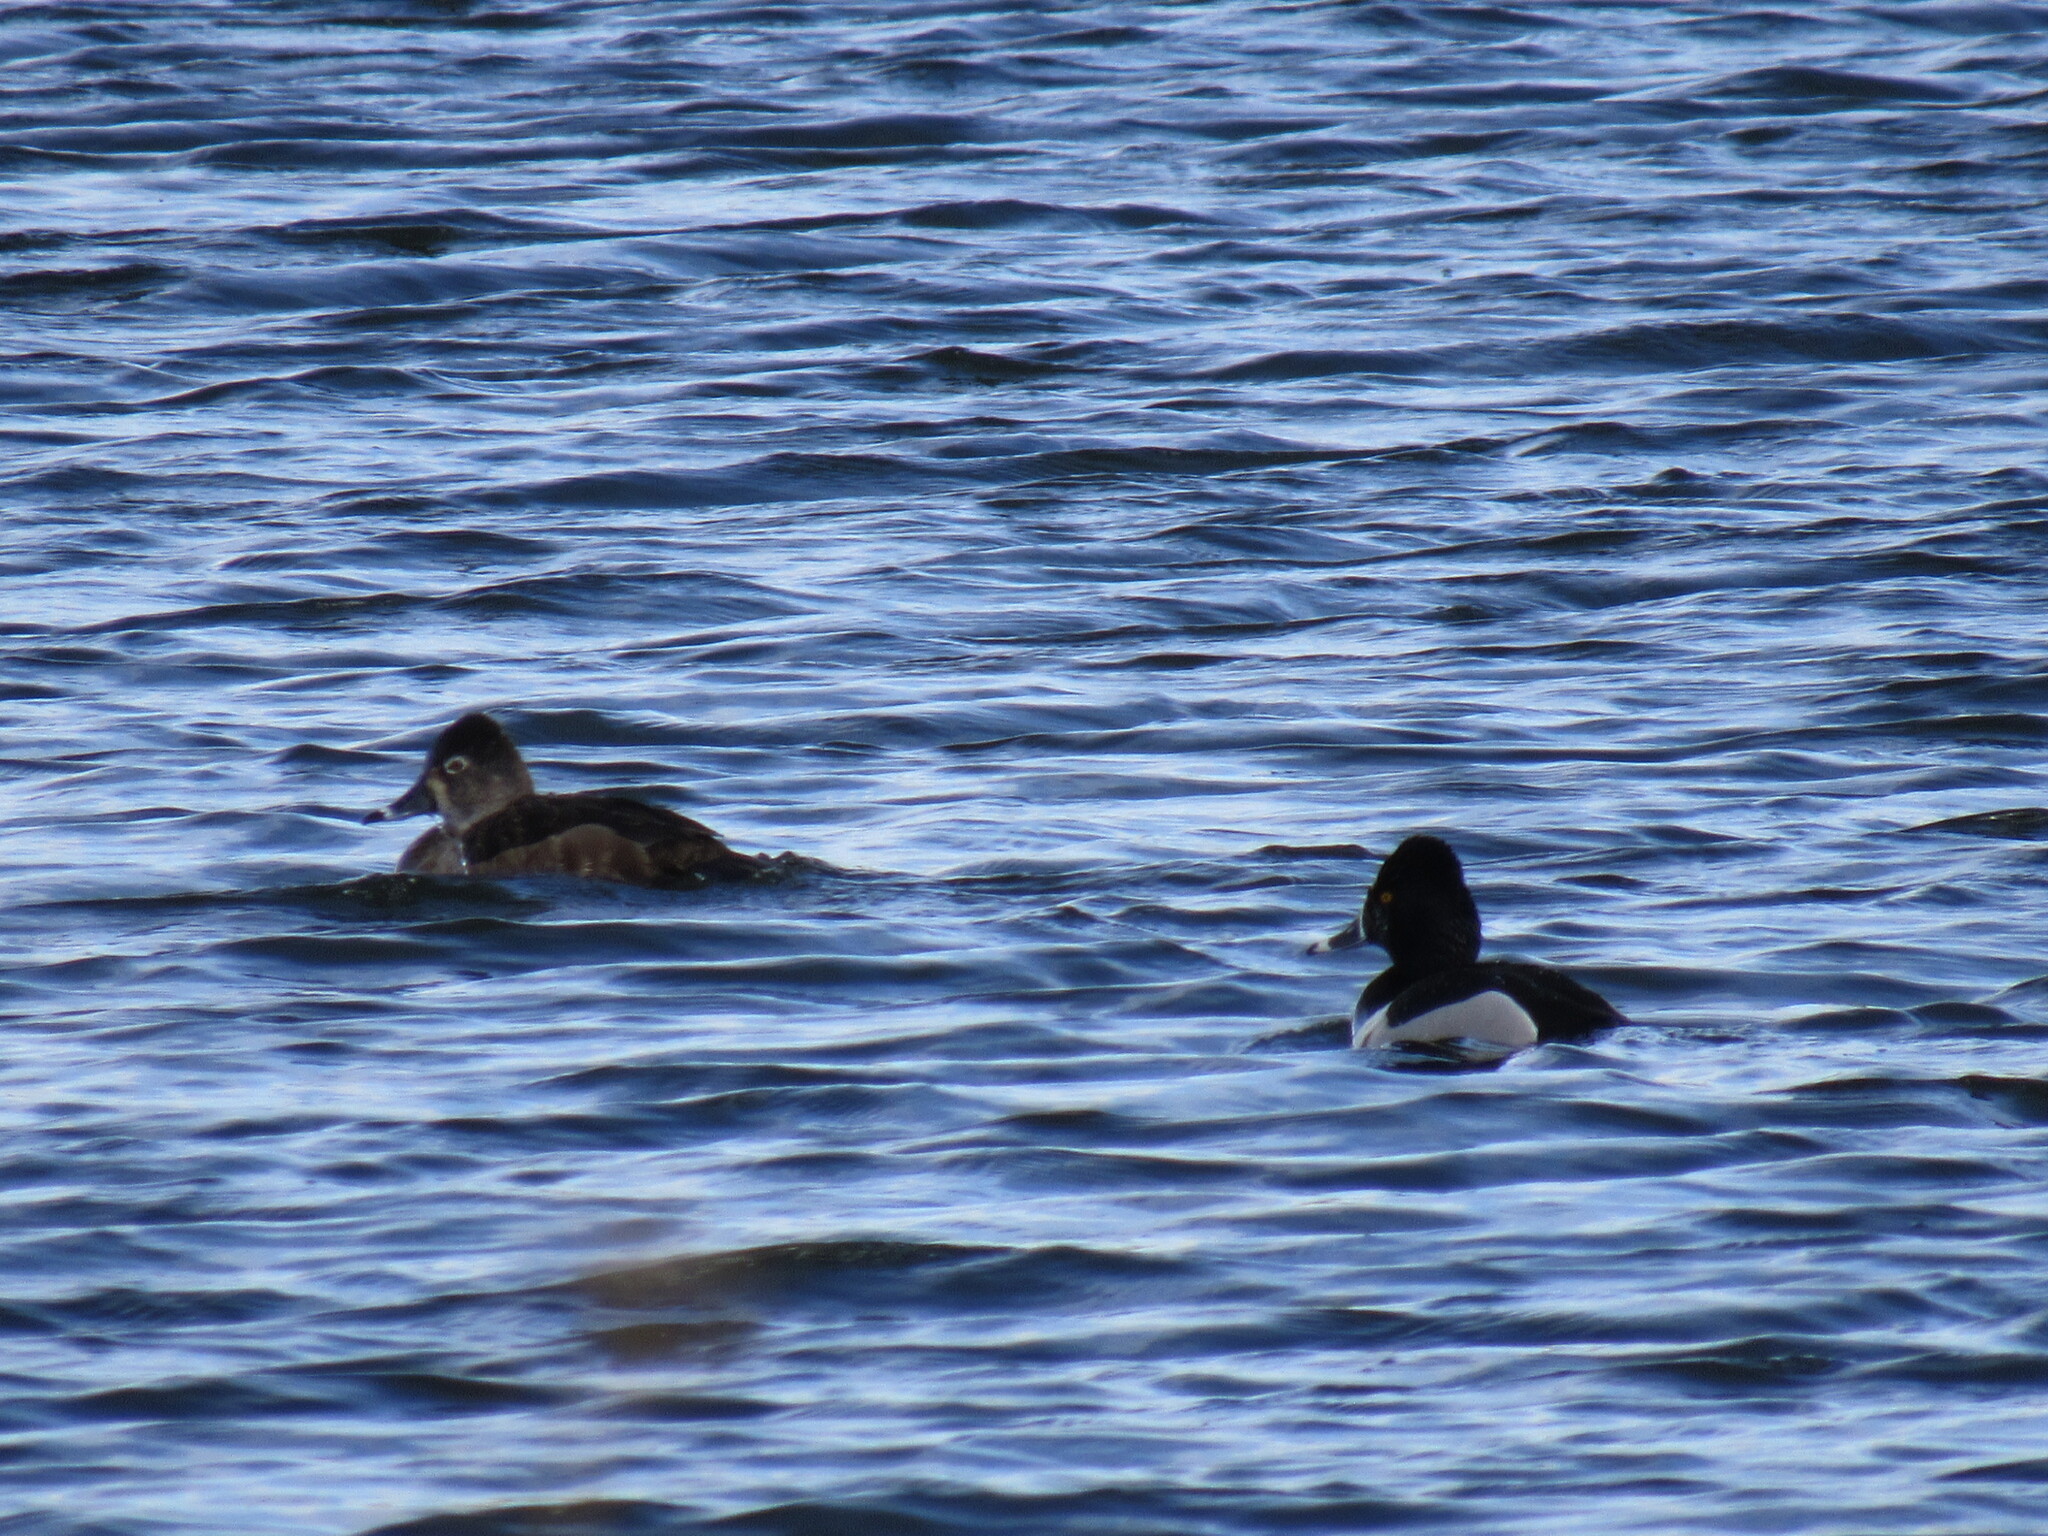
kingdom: Animalia
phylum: Chordata
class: Aves
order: Anseriformes
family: Anatidae
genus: Aythya
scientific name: Aythya collaris
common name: Ring-necked duck
